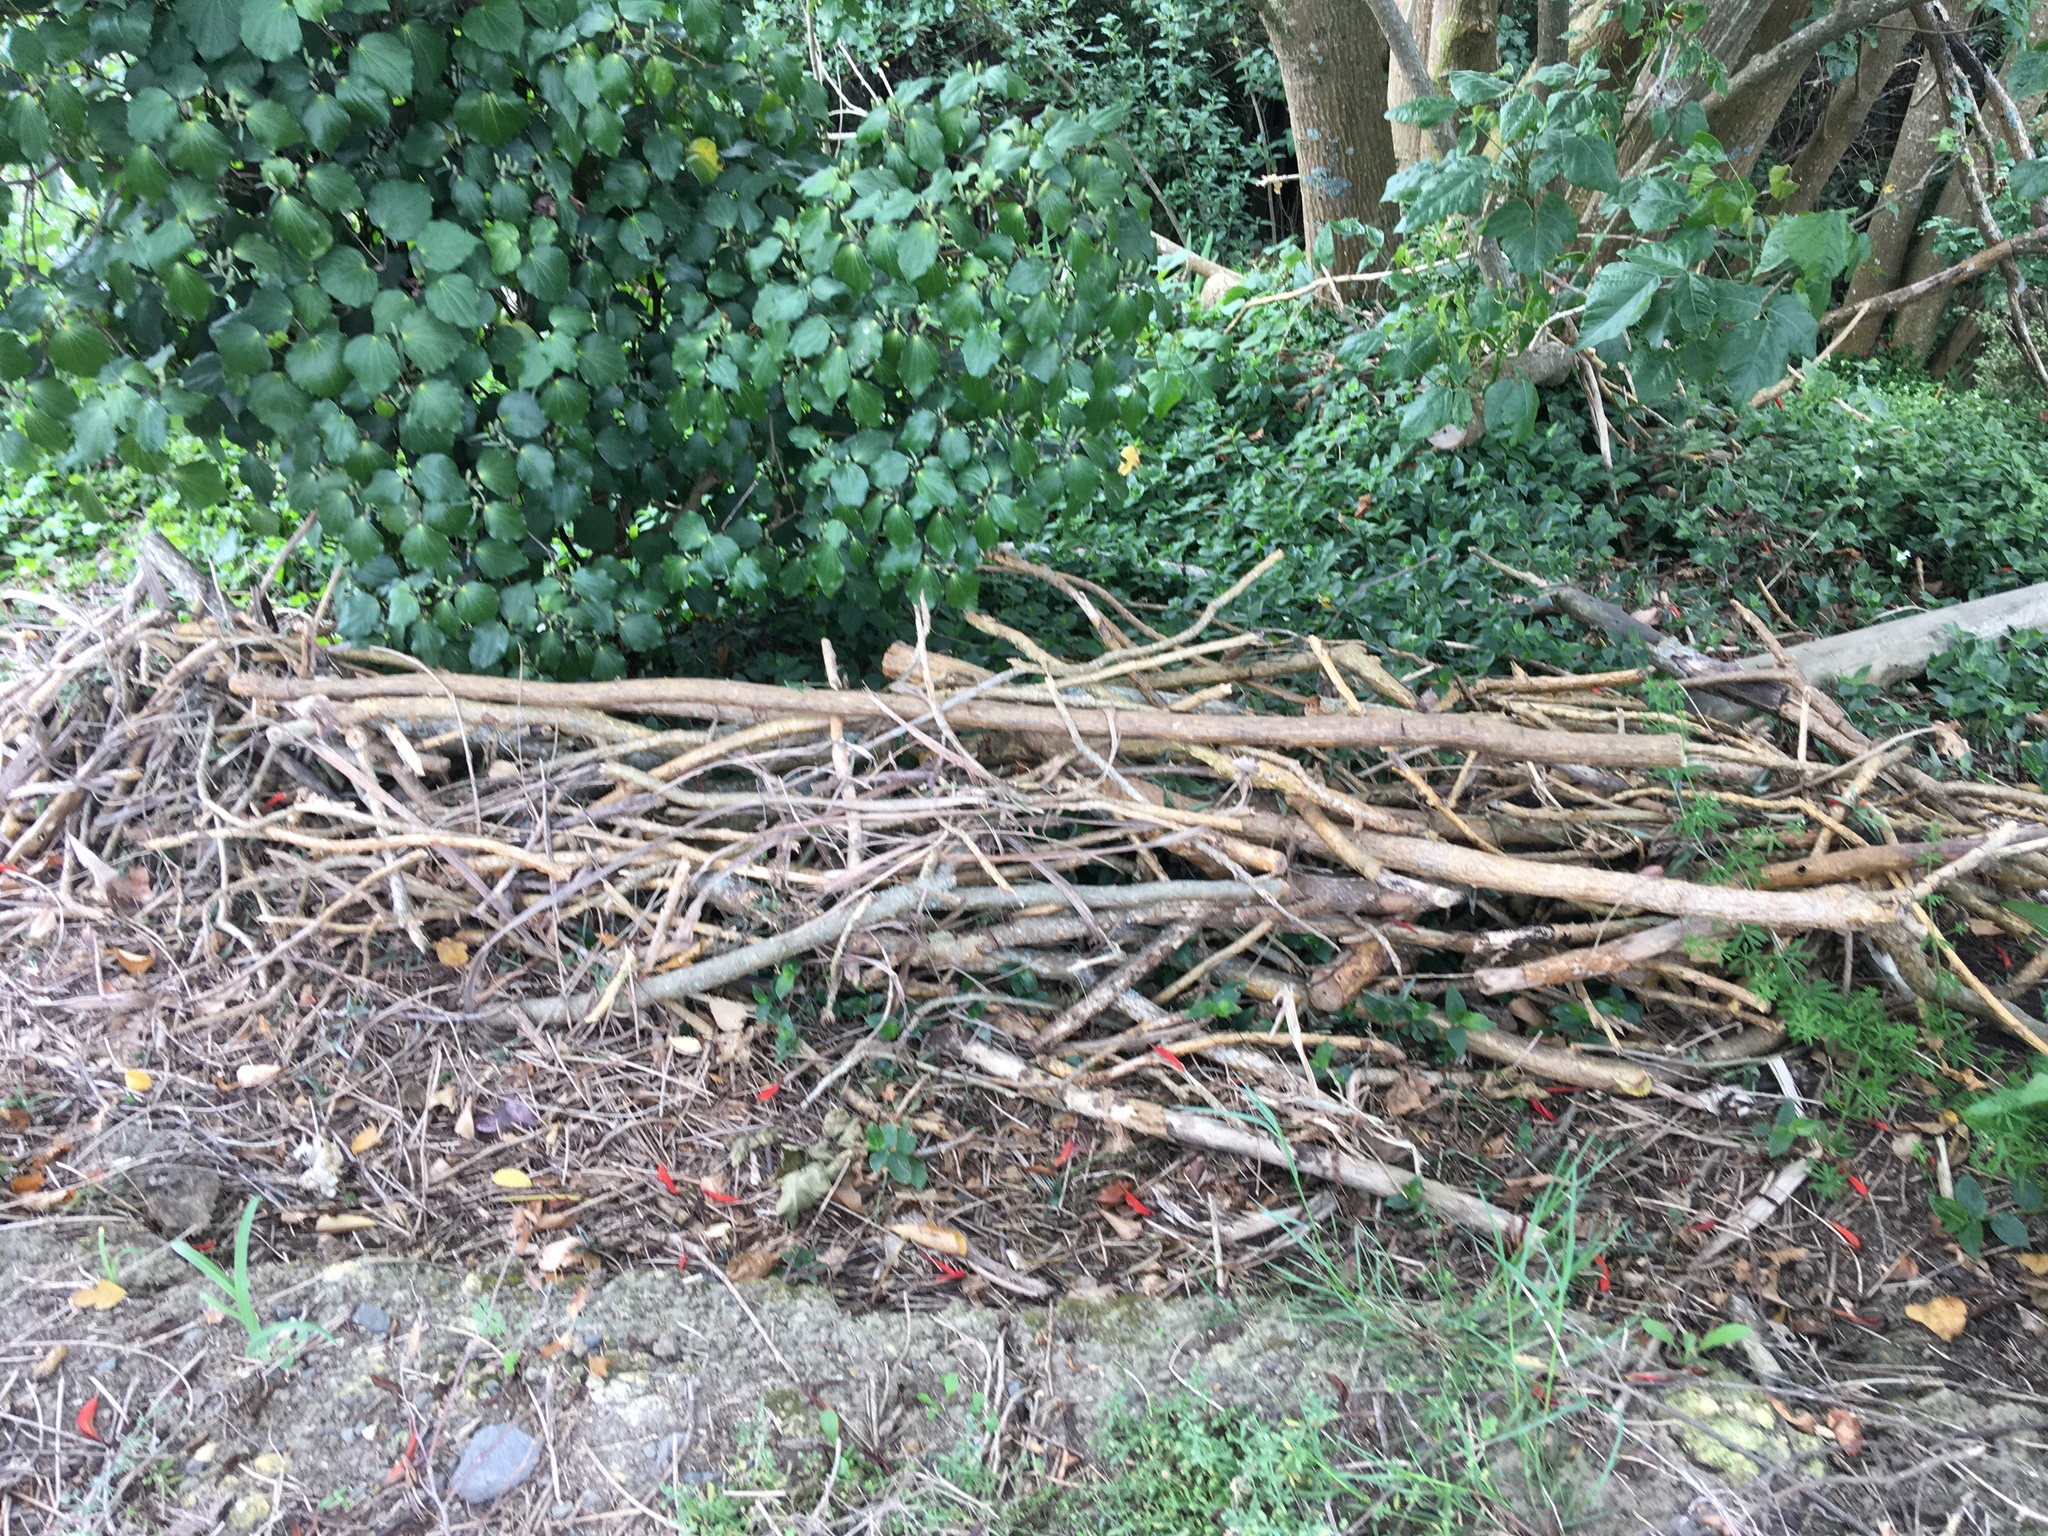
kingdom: Plantae
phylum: Tracheophyta
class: Liliopsida
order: Commelinales
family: Commelinaceae
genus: Tradescantia
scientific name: Tradescantia fluminensis
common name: Wandering-jew
